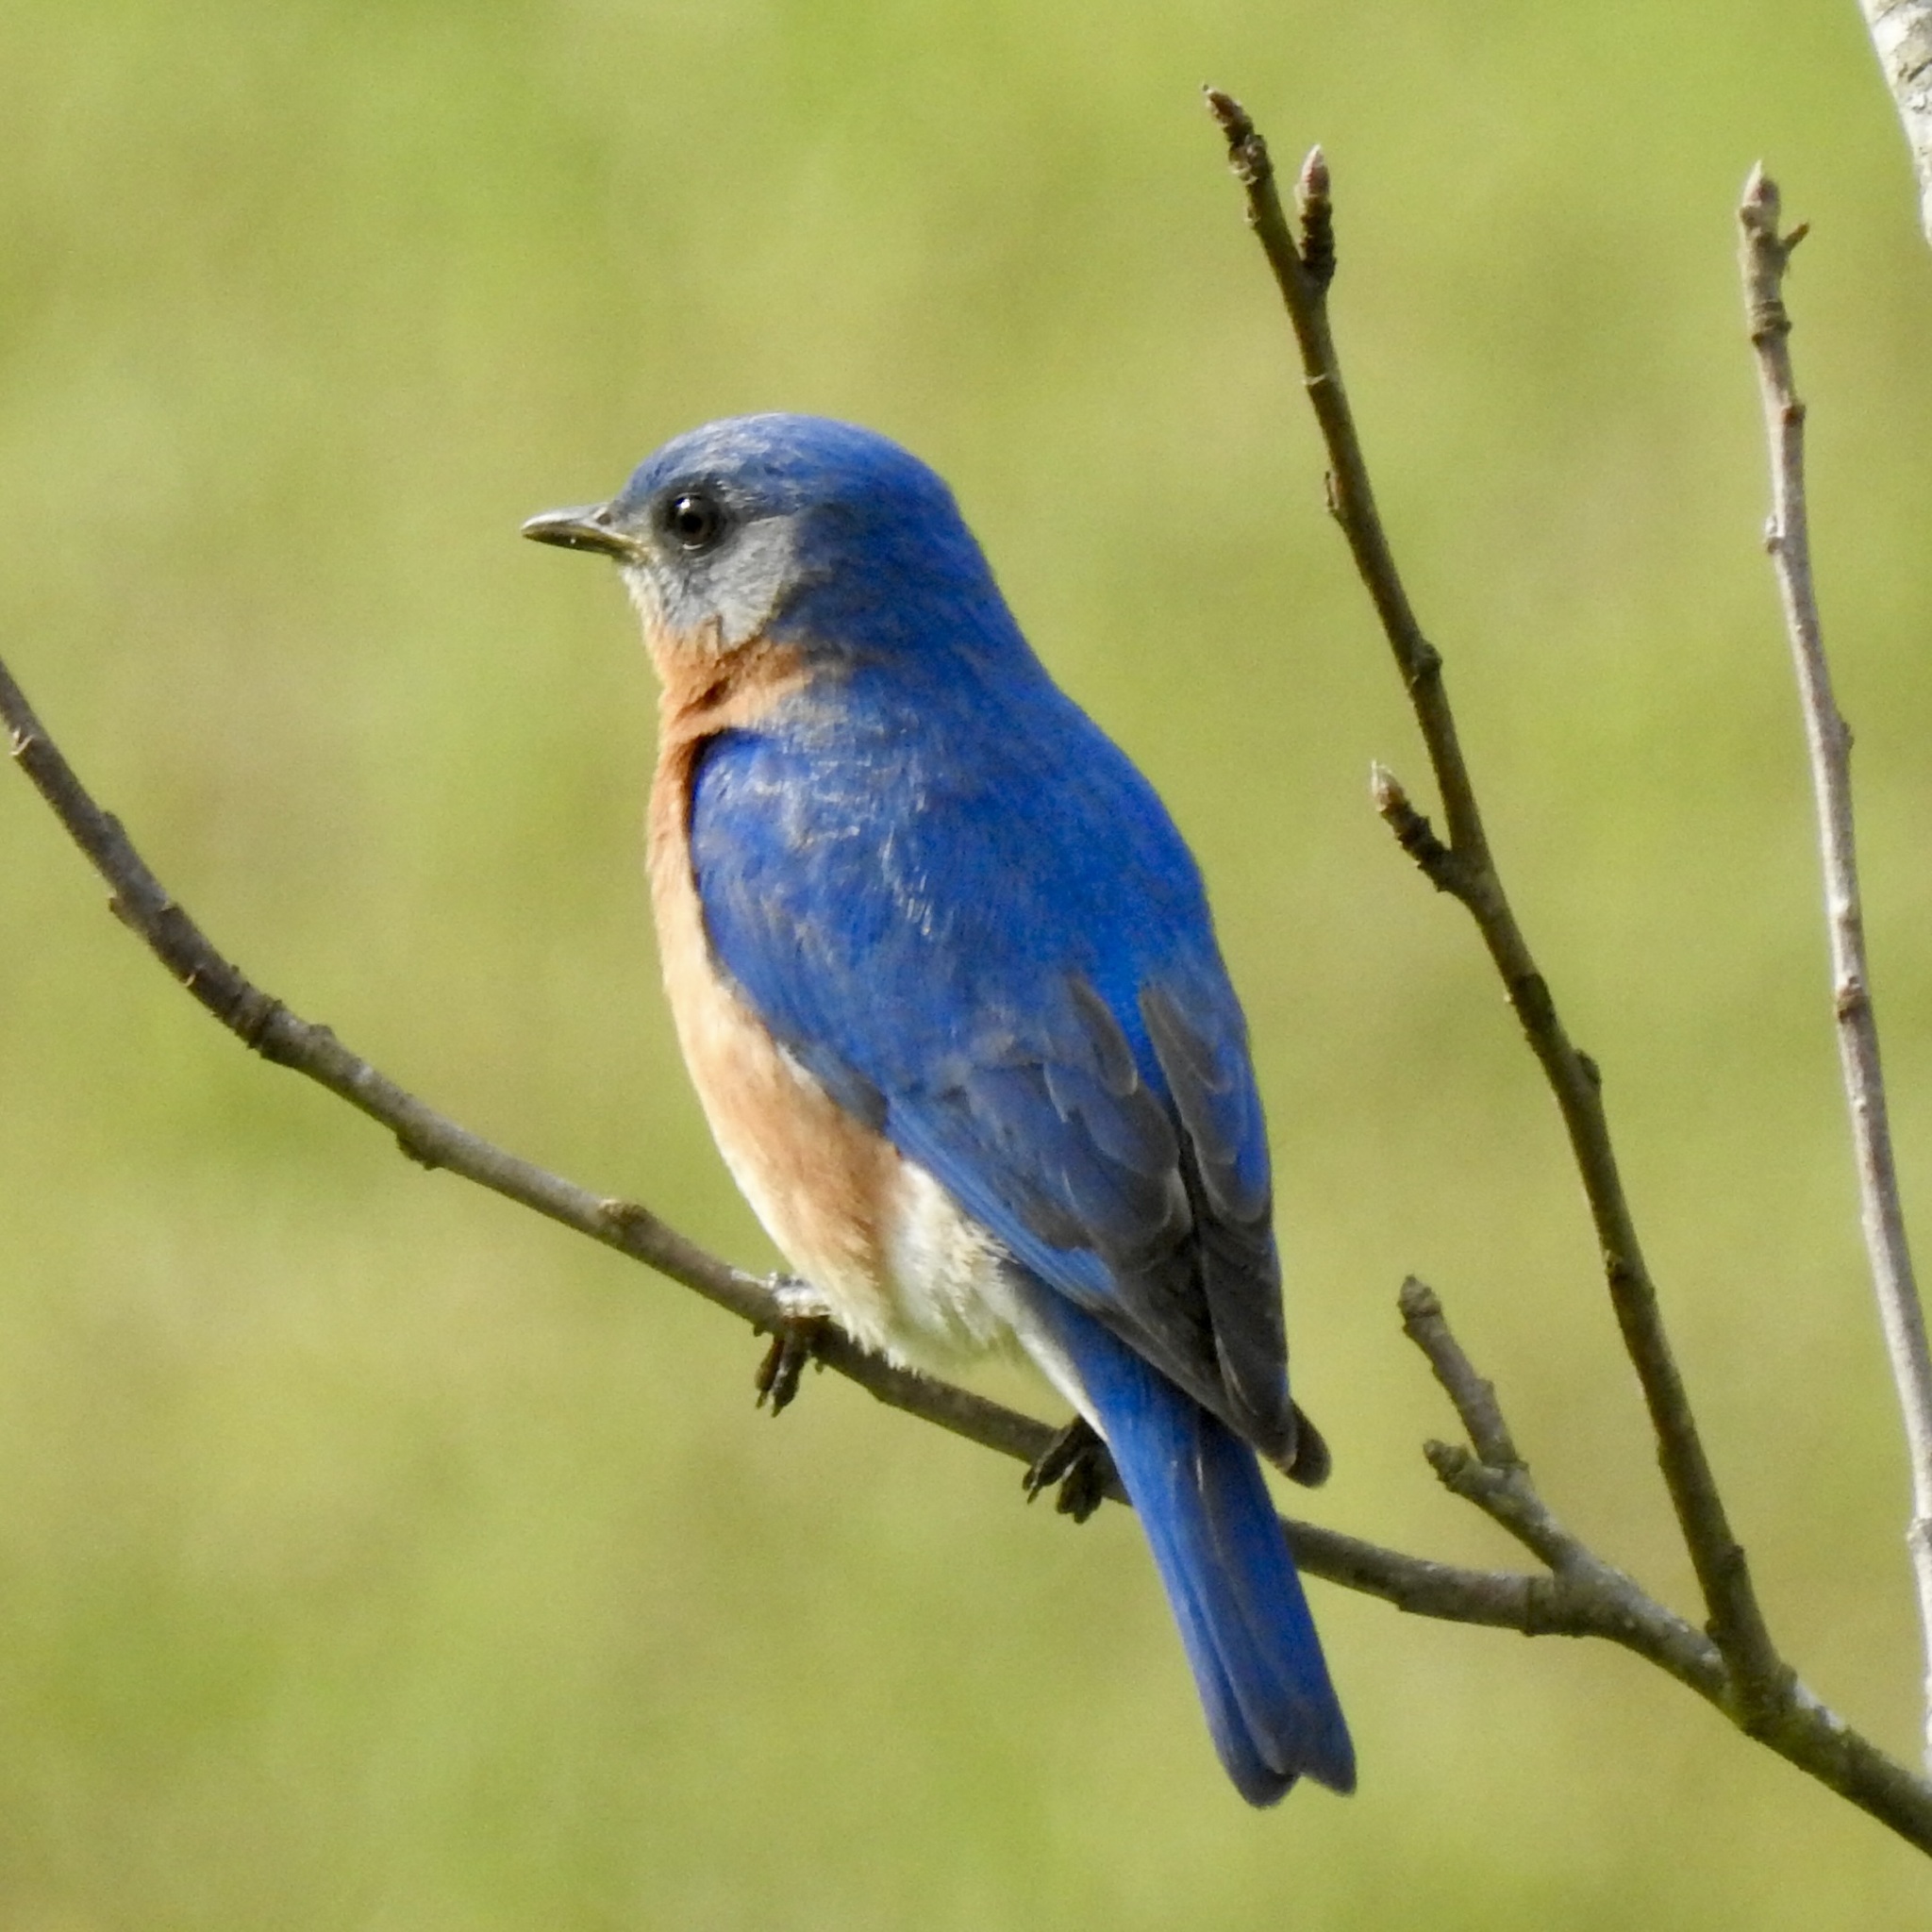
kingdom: Animalia
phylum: Chordata
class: Aves
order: Passeriformes
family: Turdidae
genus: Sialia
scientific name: Sialia sialis
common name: Eastern bluebird
